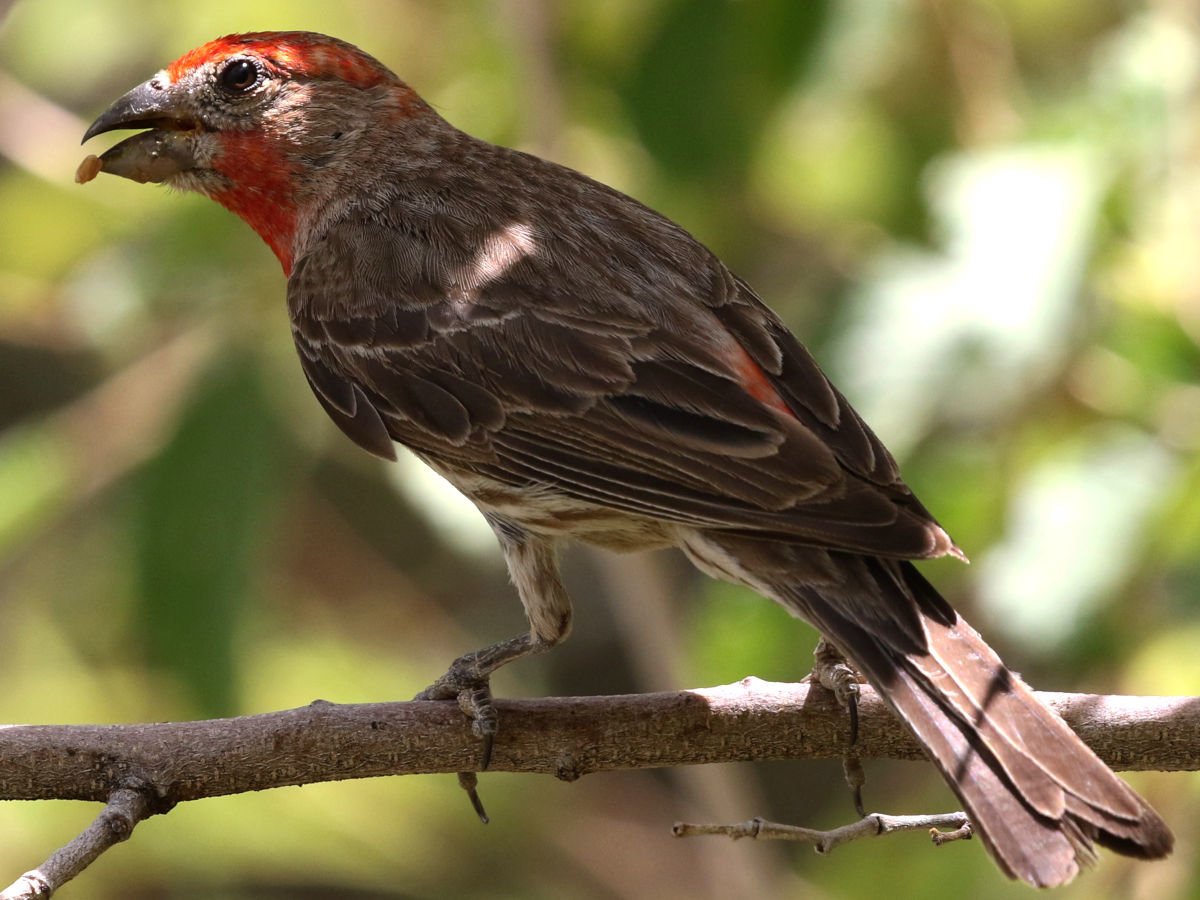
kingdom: Animalia
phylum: Chordata
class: Aves
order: Passeriformes
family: Fringillidae
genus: Haemorhous
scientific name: Haemorhous mexicanus
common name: House finch
